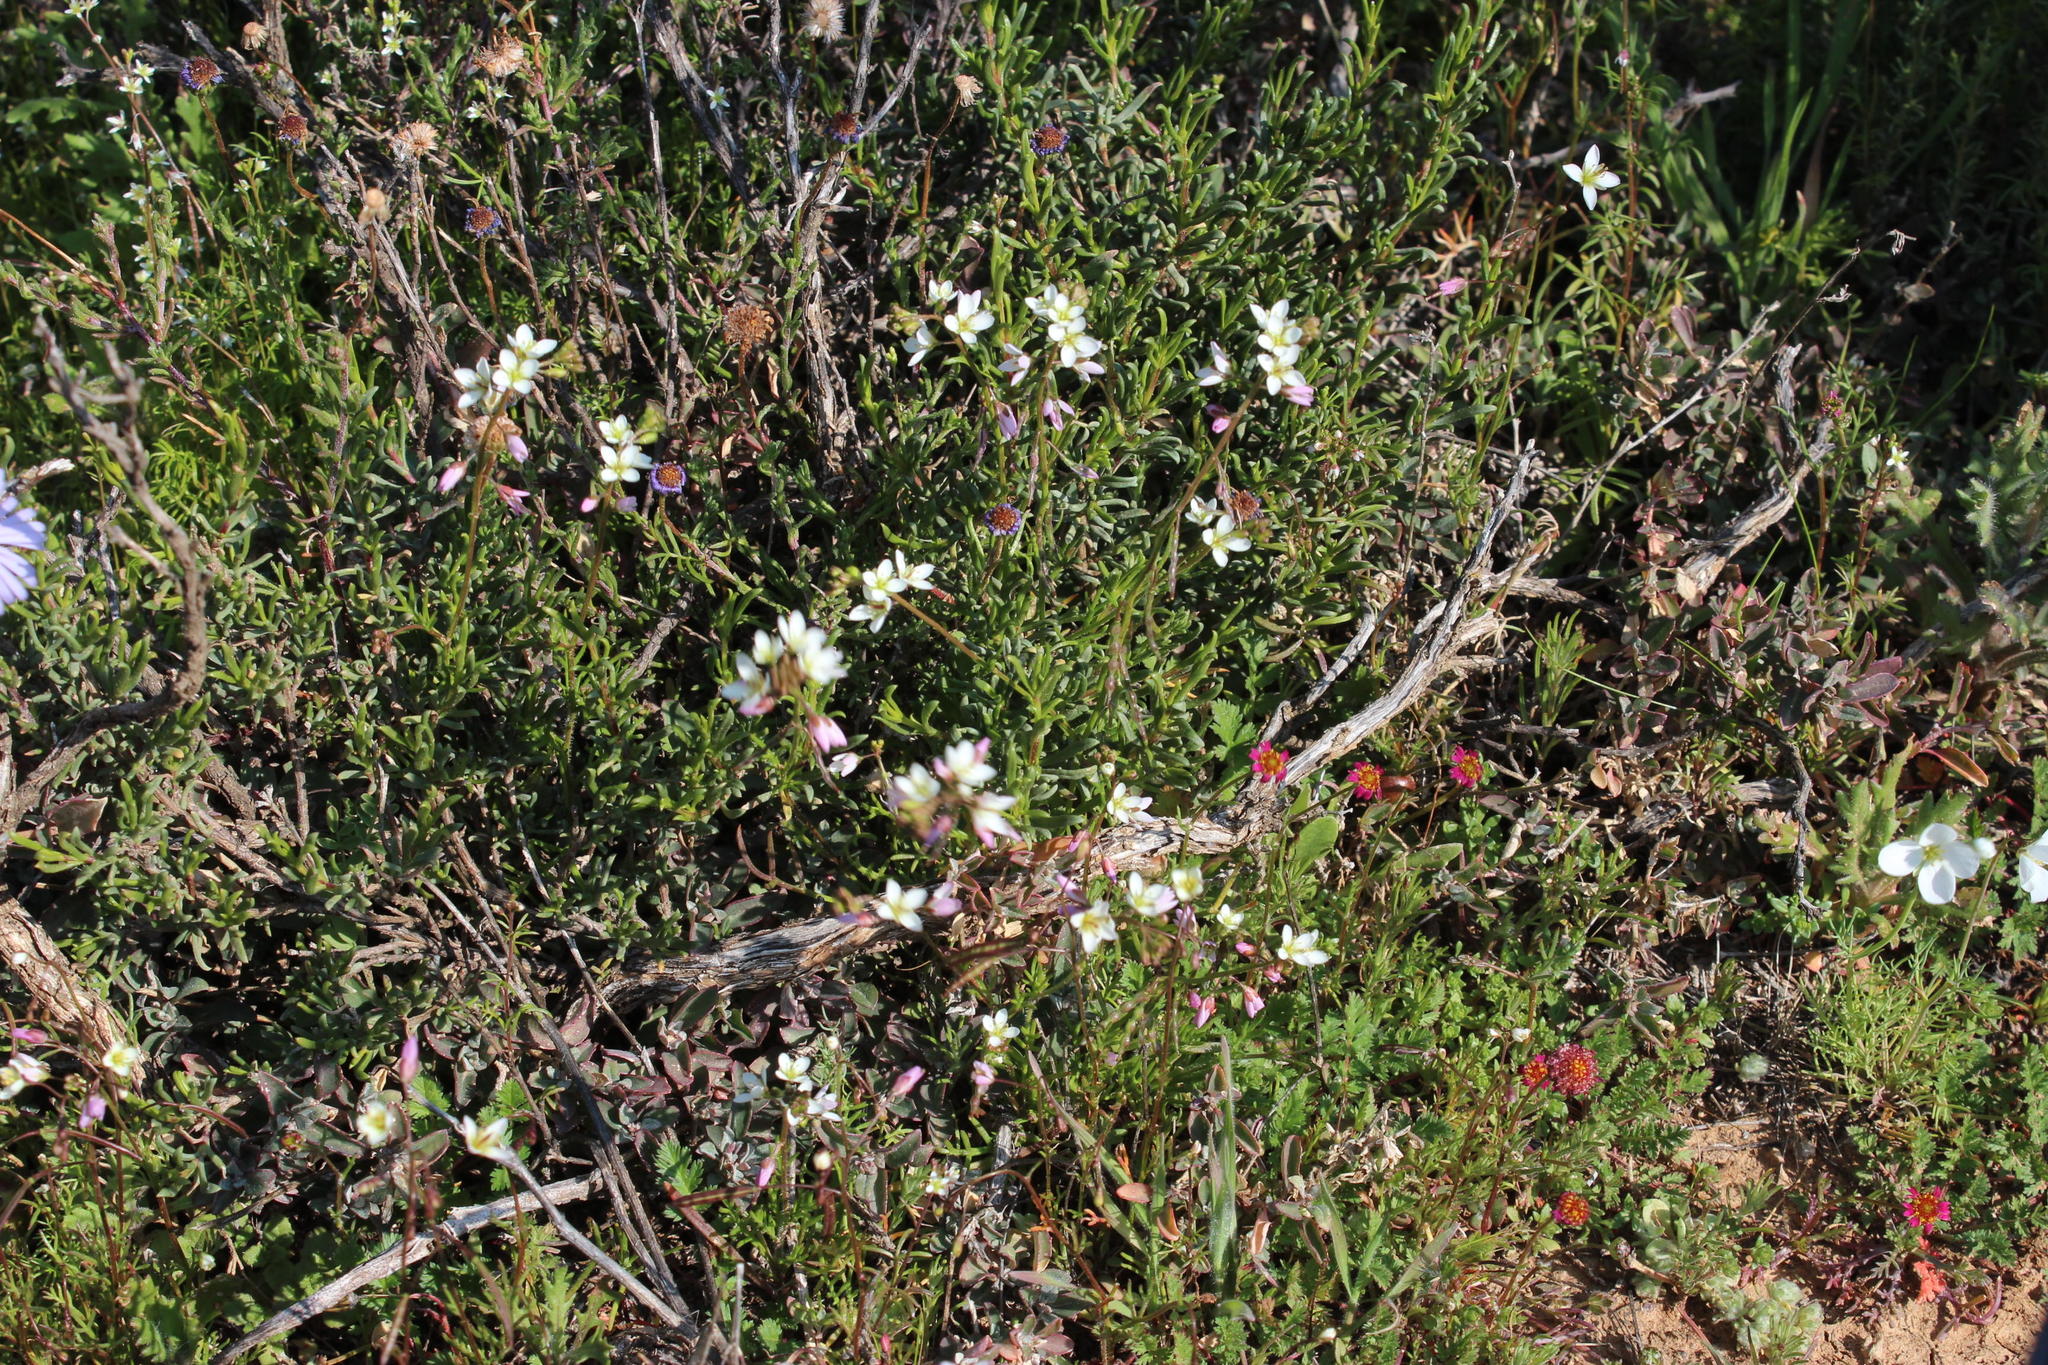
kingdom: Plantae
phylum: Tracheophyta
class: Magnoliopsida
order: Brassicales
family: Brassicaceae
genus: Heliophila
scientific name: Heliophila pubescens
